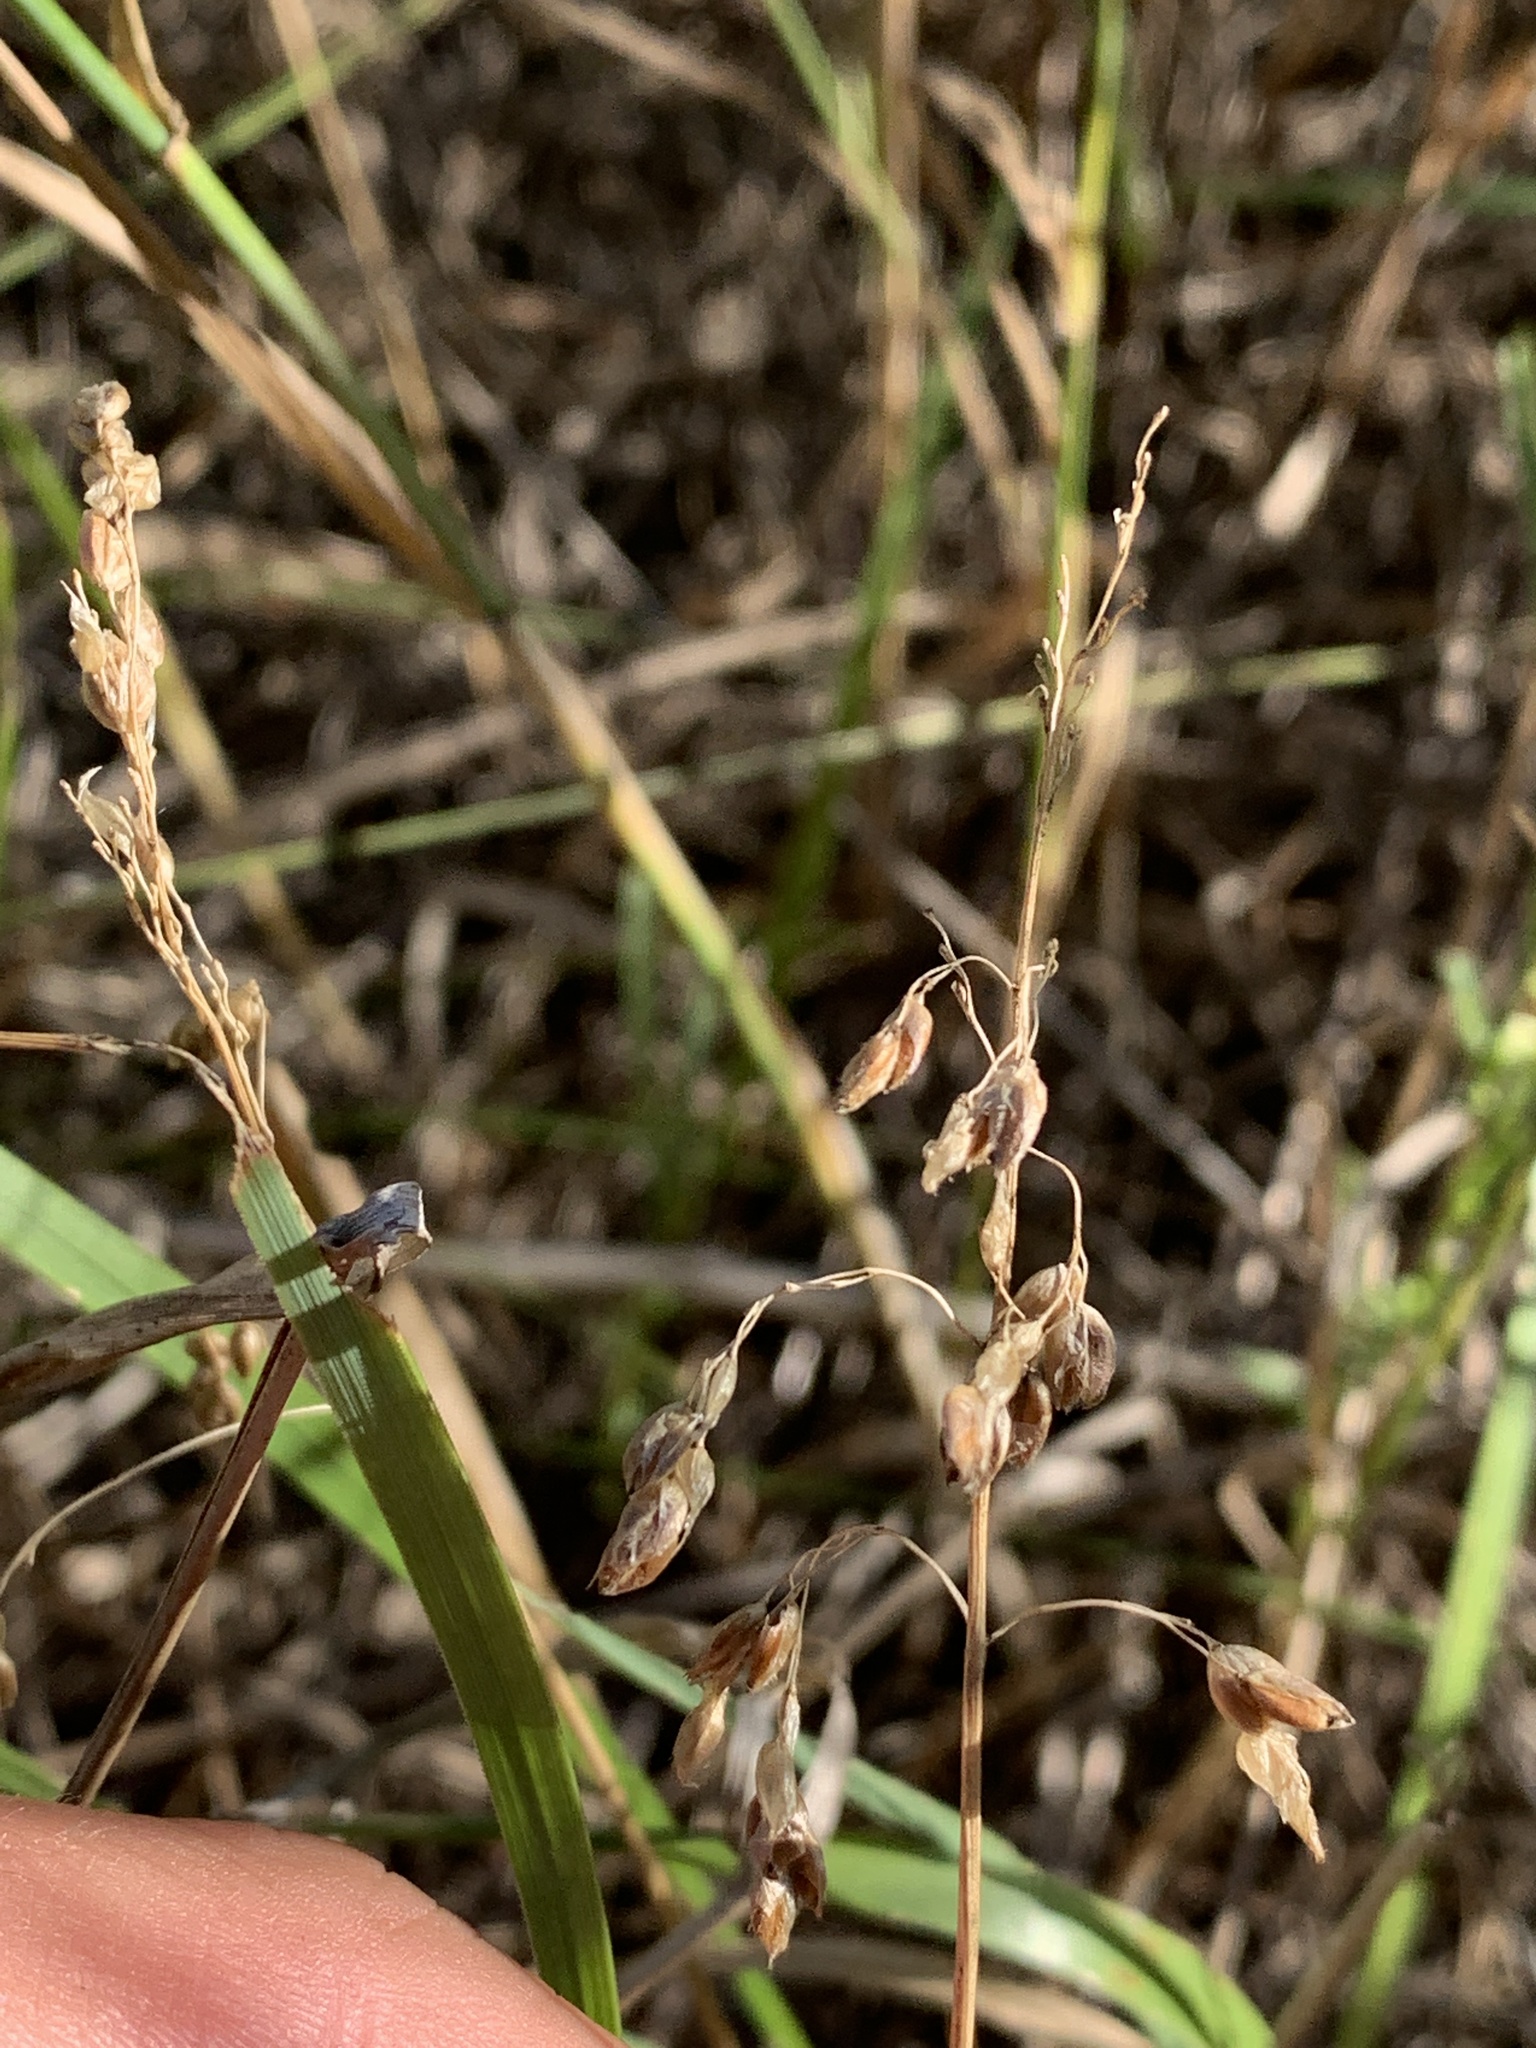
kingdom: Plantae
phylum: Tracheophyta
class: Liliopsida
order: Poales
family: Poaceae
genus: Anthoxanthum
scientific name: Anthoxanthum nitens
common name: Holy grass
